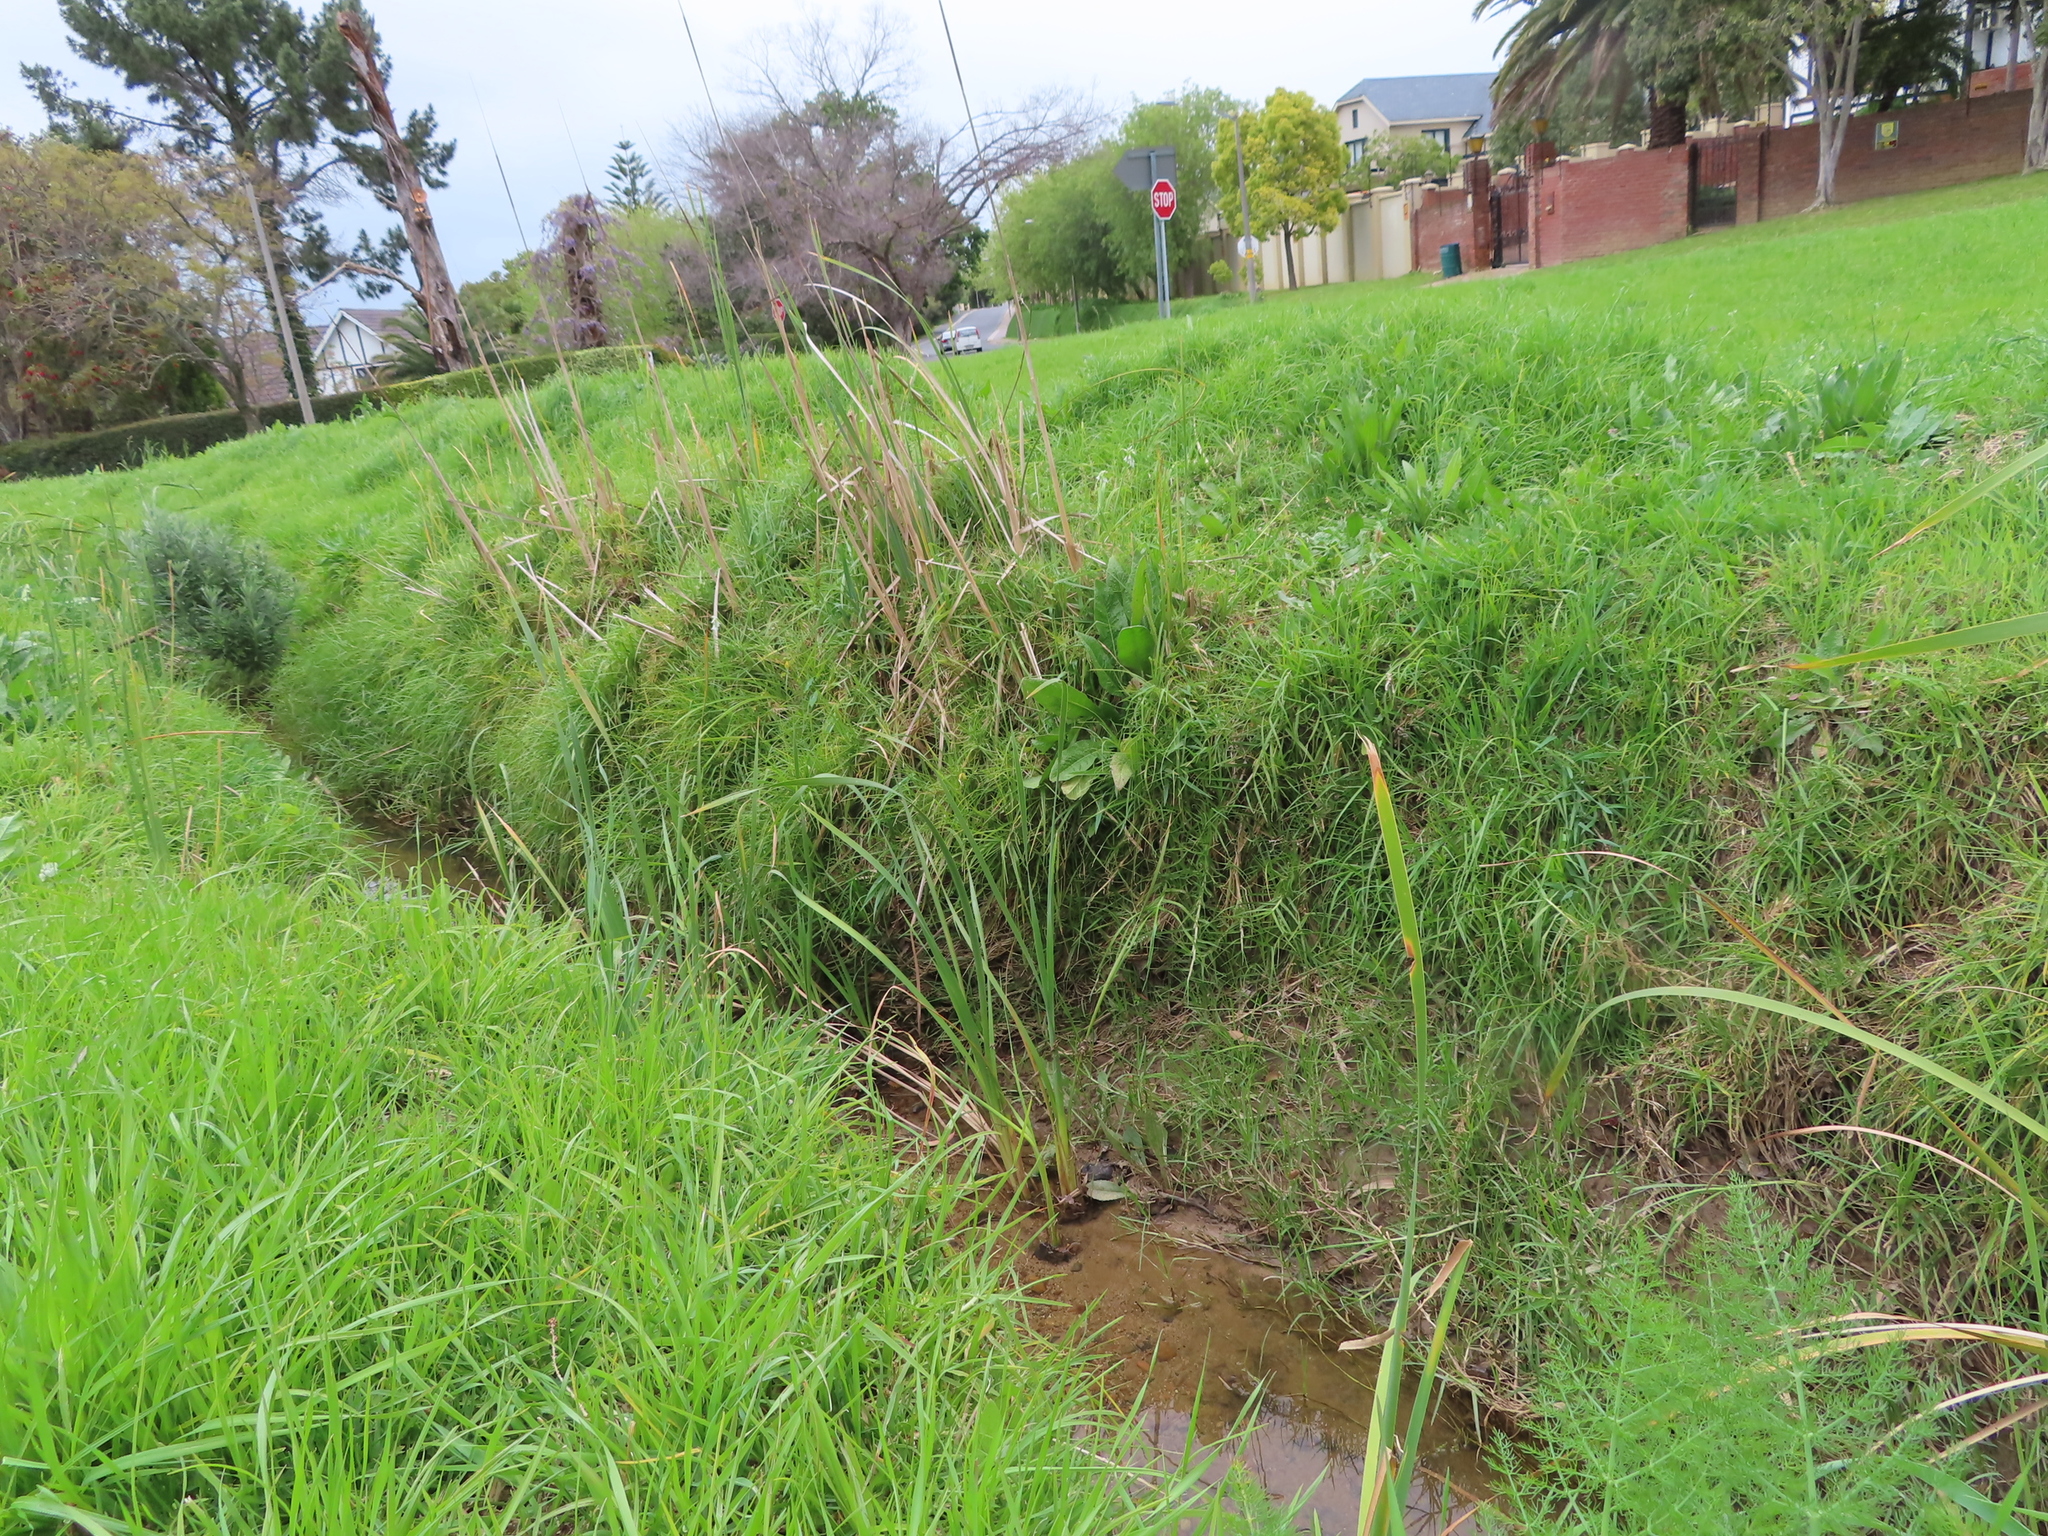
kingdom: Plantae
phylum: Tracheophyta
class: Liliopsida
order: Poales
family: Typhaceae
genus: Typha
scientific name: Typha capensis
